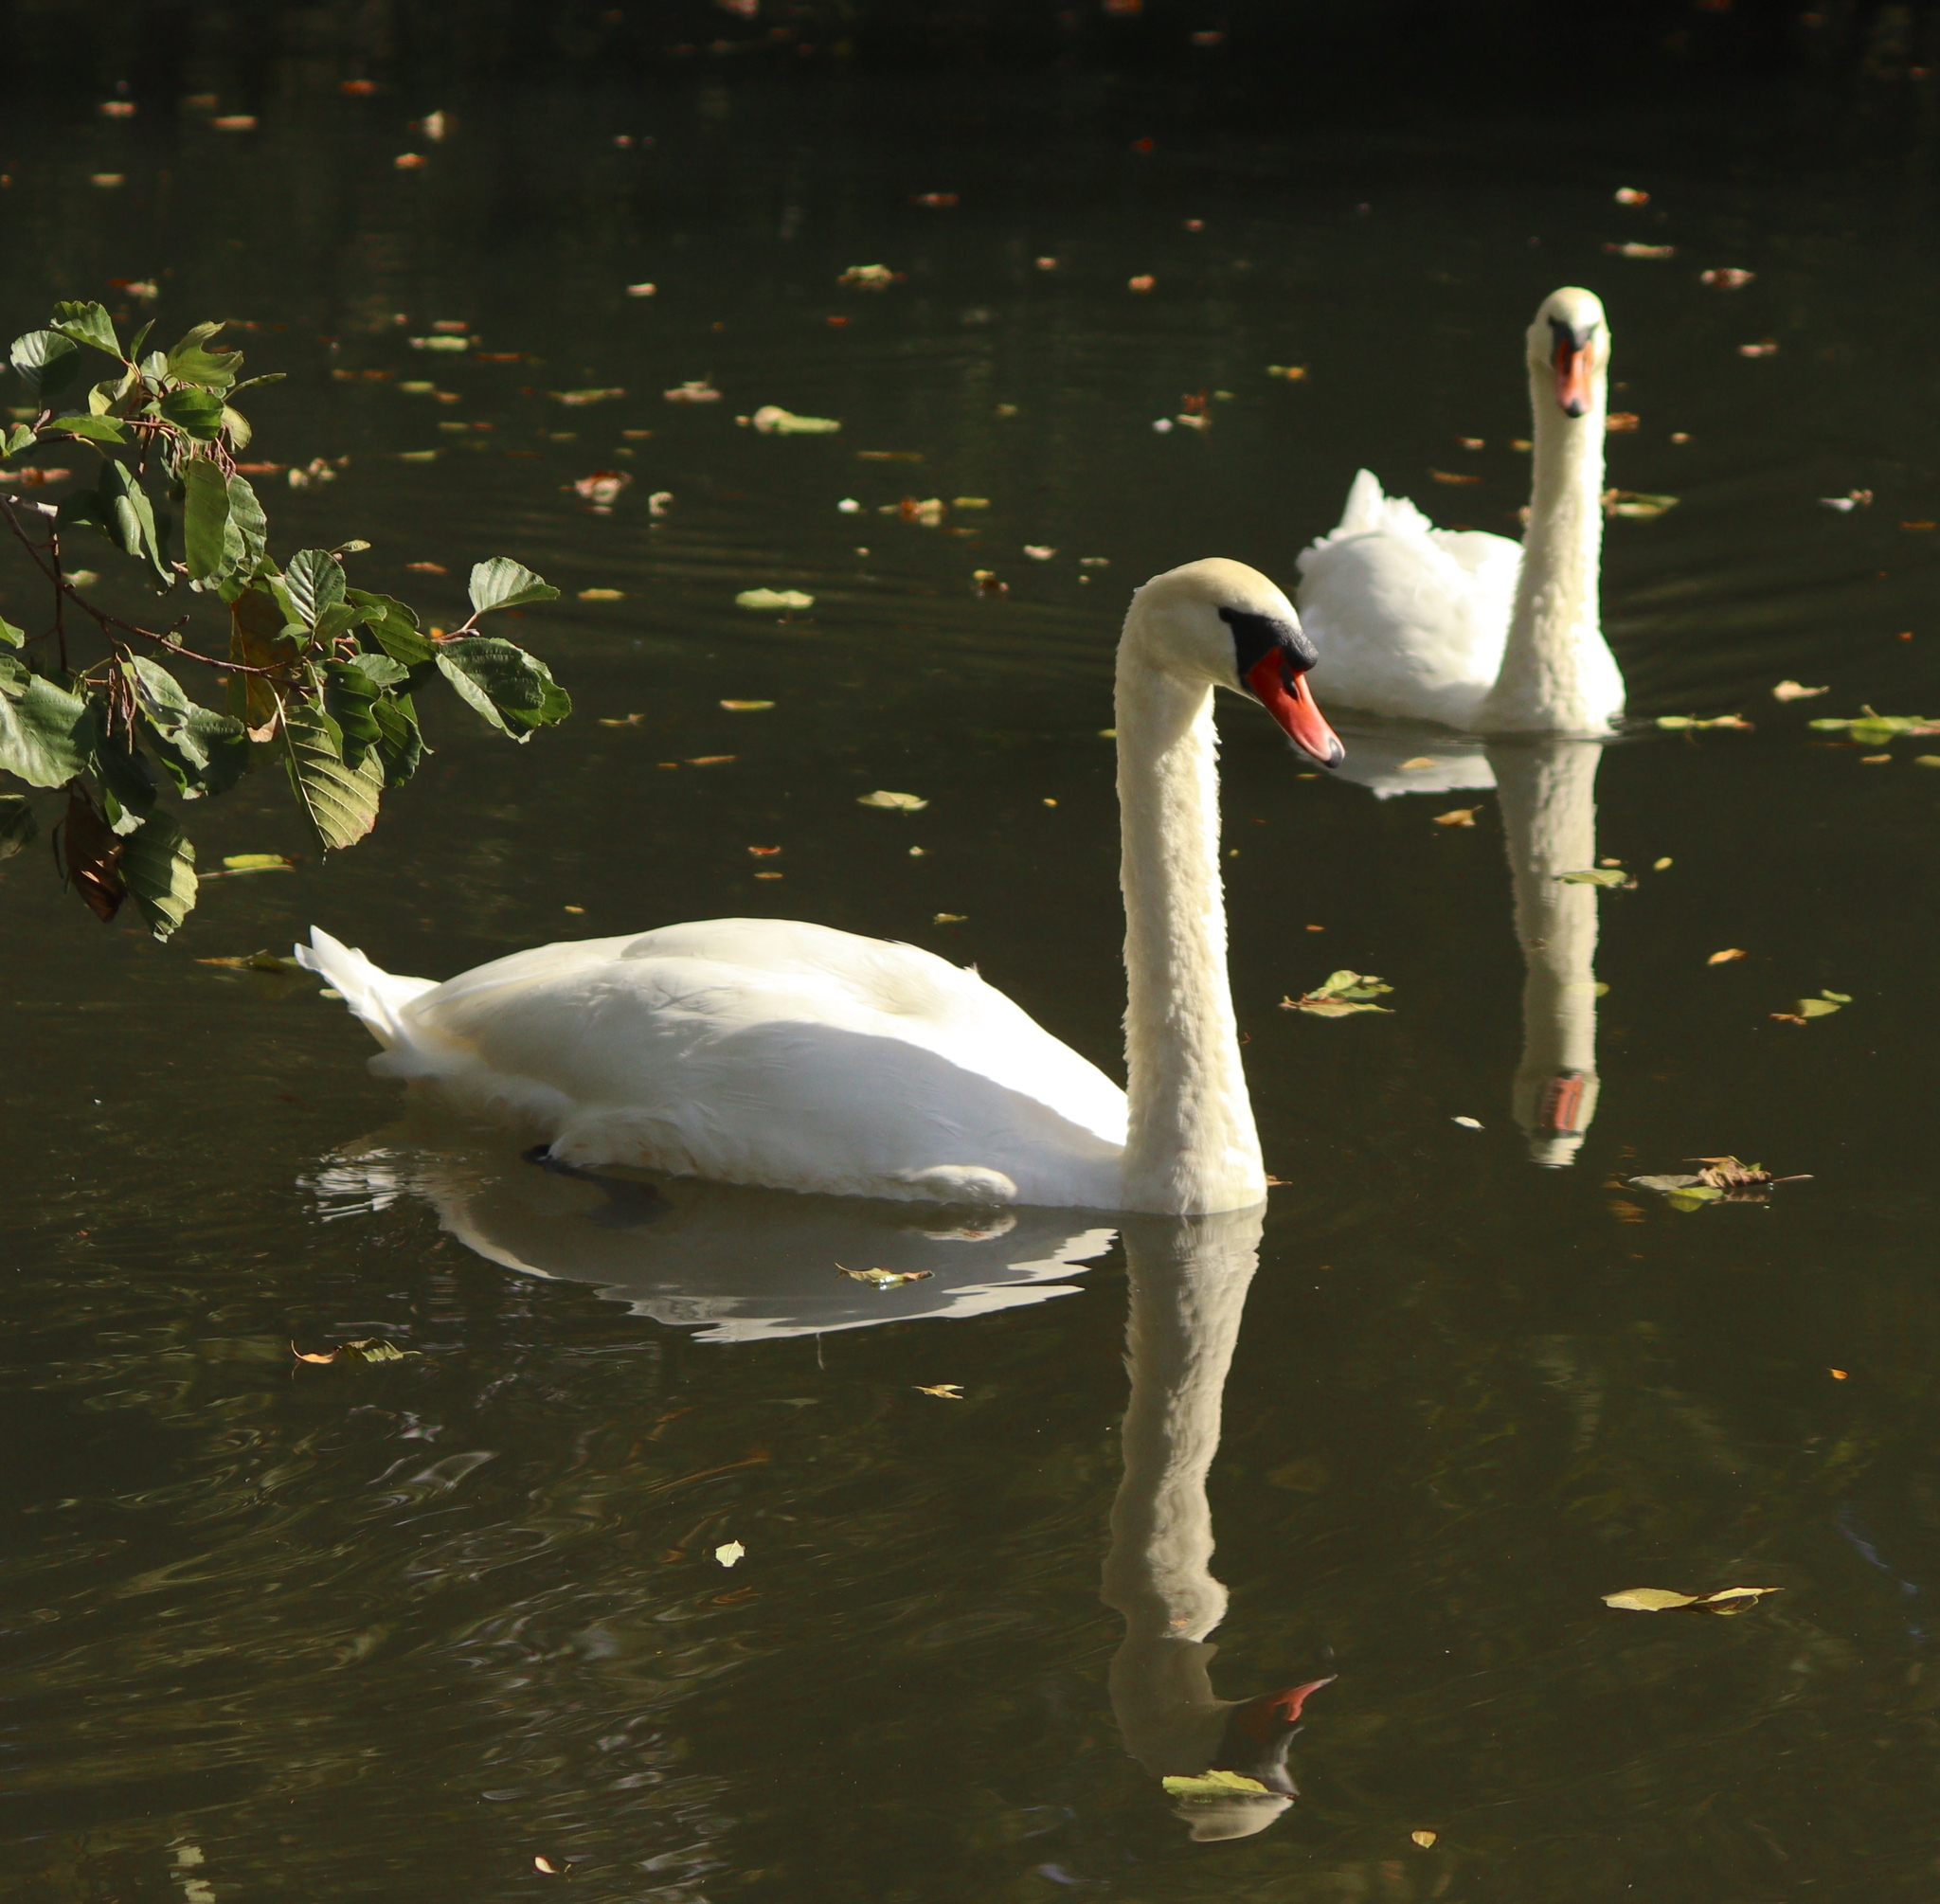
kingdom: Animalia
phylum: Chordata
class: Aves
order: Anseriformes
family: Anatidae
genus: Cygnus
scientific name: Cygnus olor
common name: Mute swan
